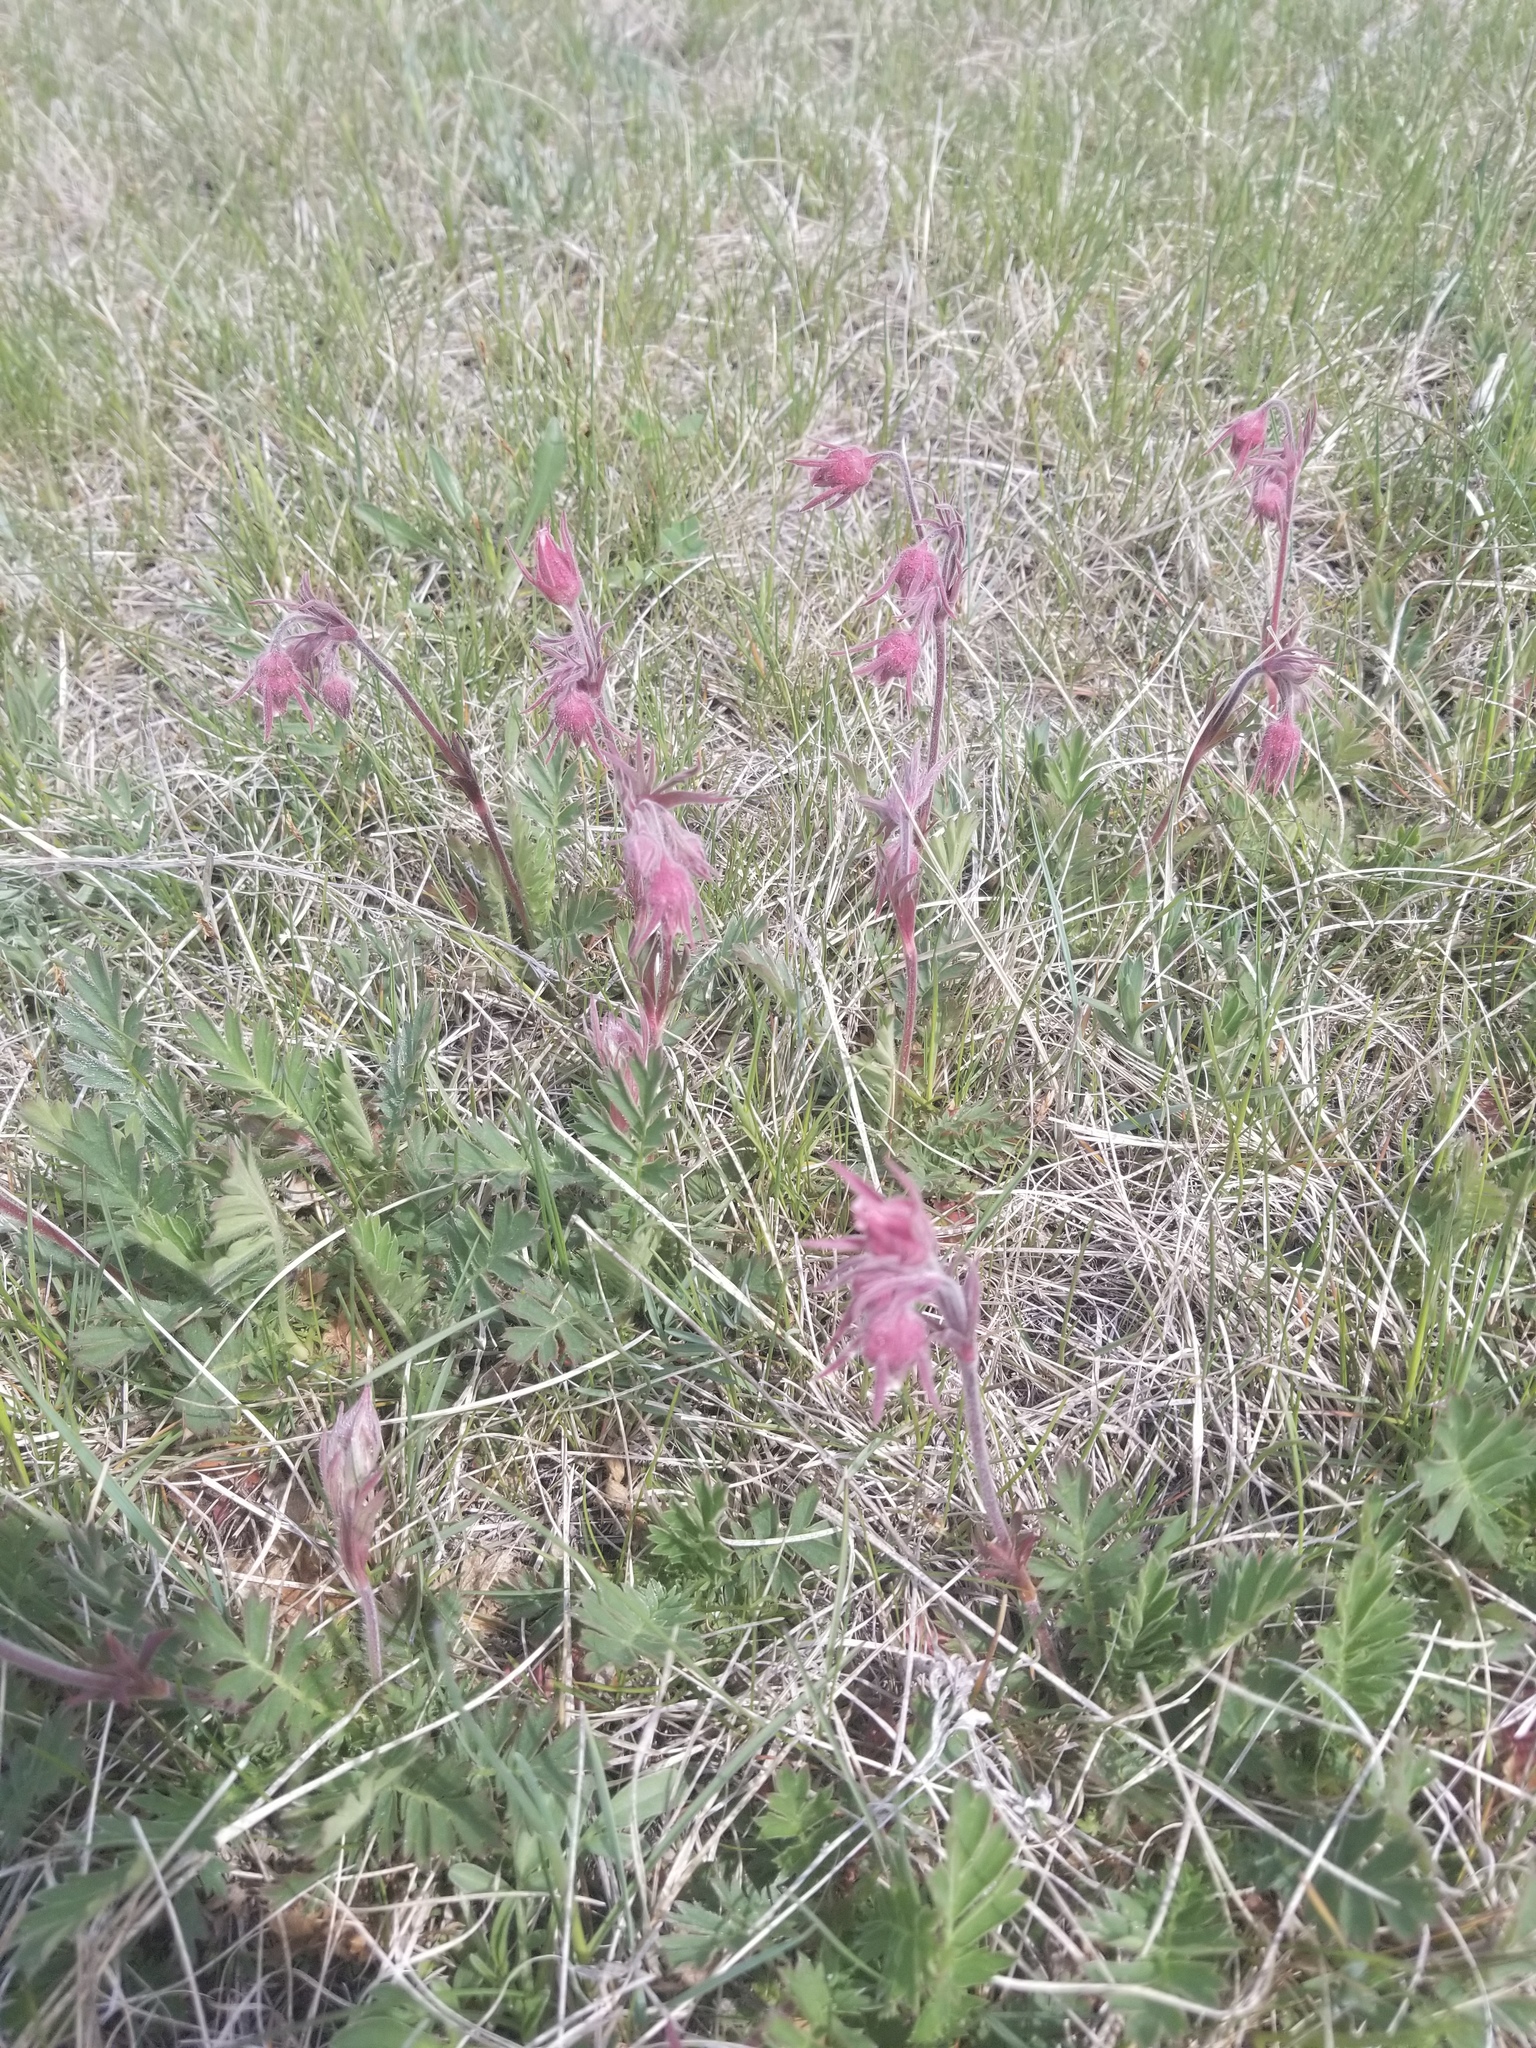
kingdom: Plantae
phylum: Tracheophyta
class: Magnoliopsida
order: Rosales
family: Rosaceae
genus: Geum
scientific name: Geum triflorum
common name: Old man's whiskers
